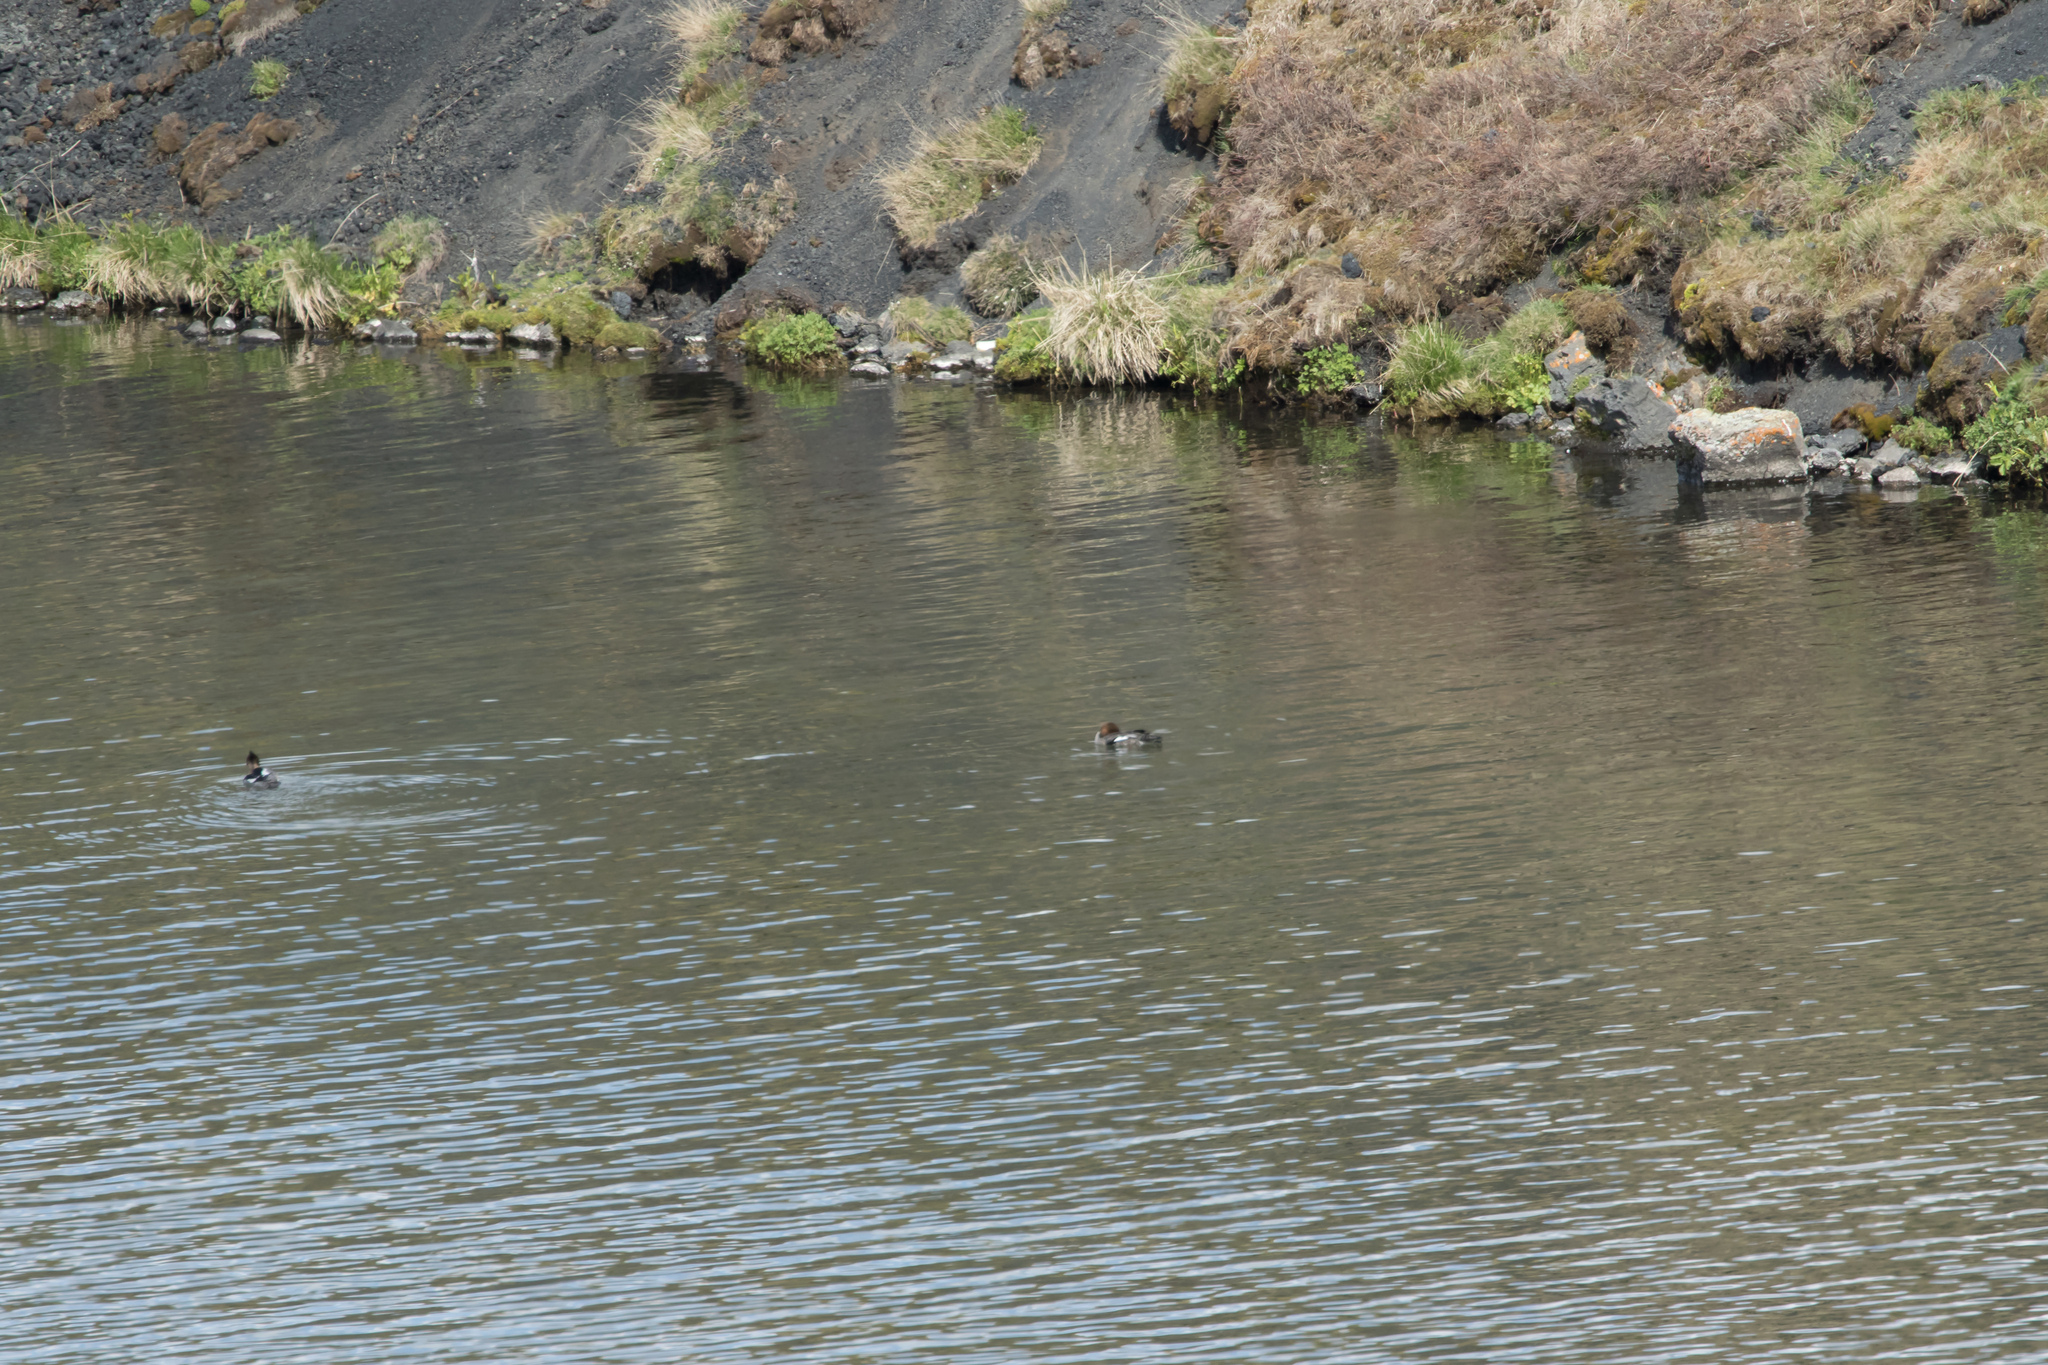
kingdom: Animalia
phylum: Chordata
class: Aves
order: Anseriformes
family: Anatidae
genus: Mergus
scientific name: Mergus serrator
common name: Red-breasted merganser
